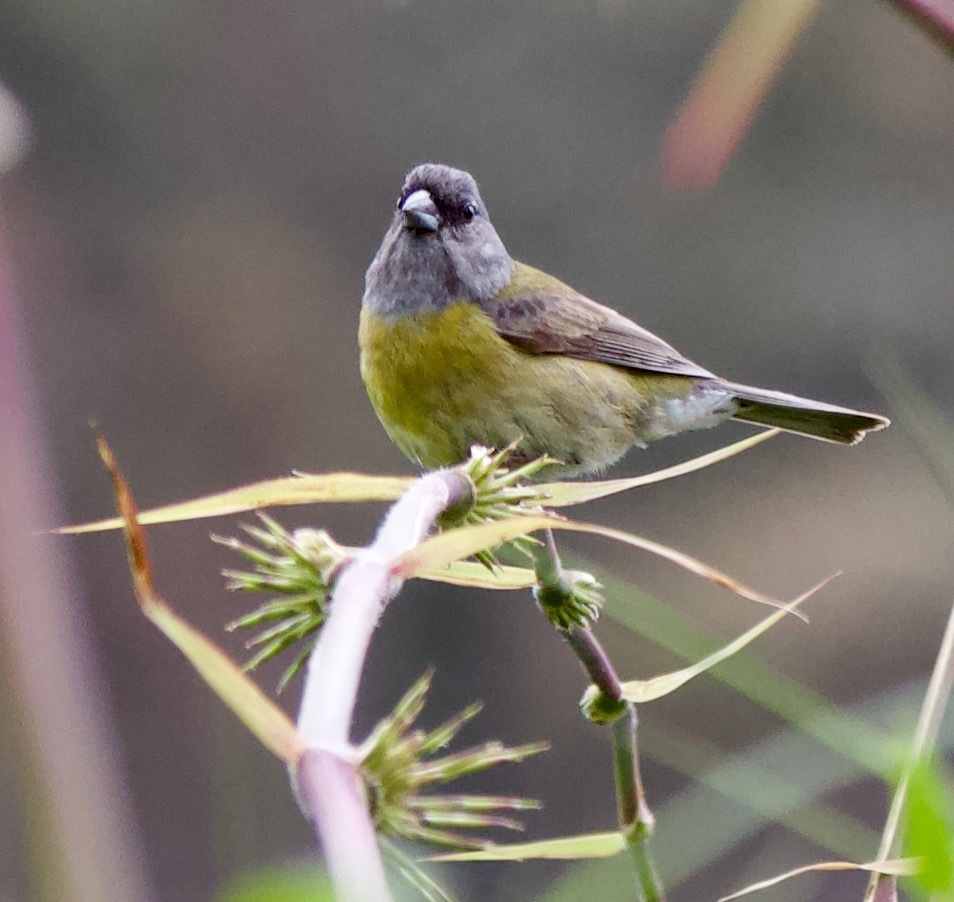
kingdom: Animalia
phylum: Chordata
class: Aves
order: Passeriformes
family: Thraupidae
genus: Phrygilus
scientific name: Phrygilus patagonicus
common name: Patagonian sierra finch
